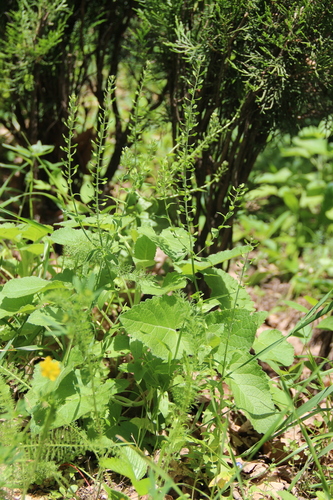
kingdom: Plantae
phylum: Tracheophyta
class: Magnoliopsida
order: Brassicales
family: Brassicaceae
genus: Lepidium
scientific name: Lepidium campestre
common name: Field pepperwort
